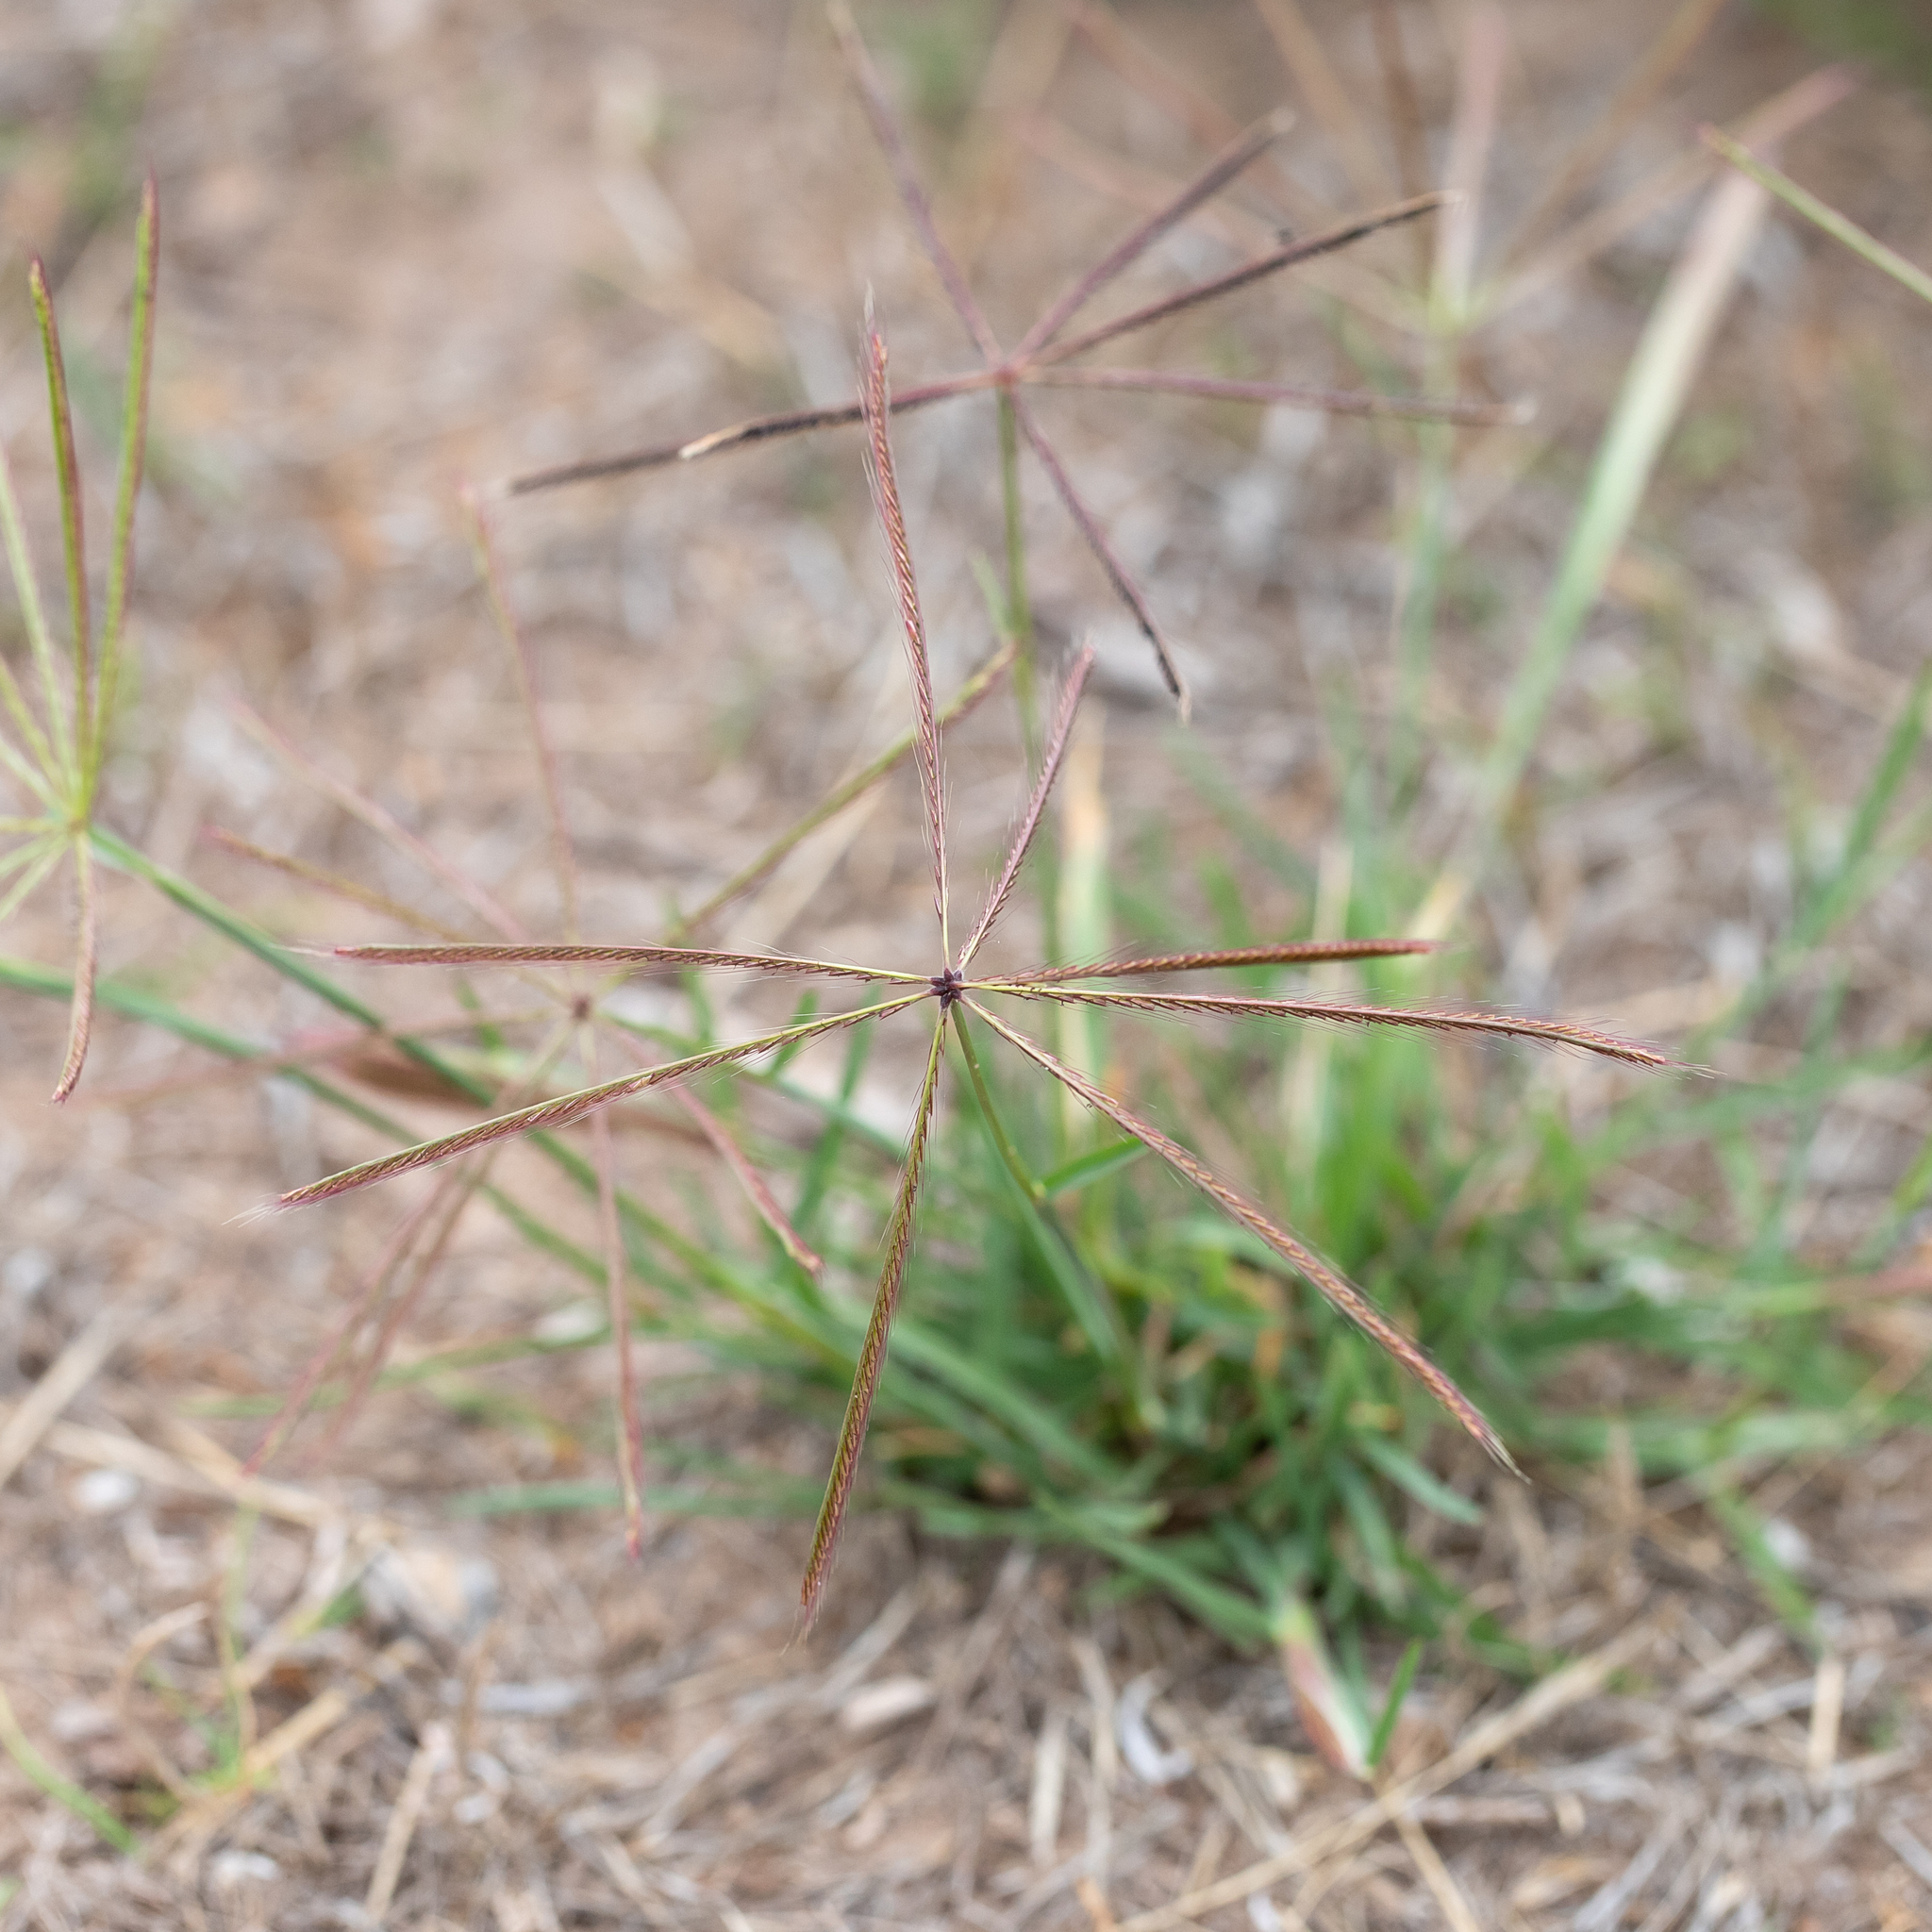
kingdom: Plantae
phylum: Tracheophyta
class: Liliopsida
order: Poales
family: Poaceae
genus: Chloris
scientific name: Chloris truncata
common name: Windmill-grass
